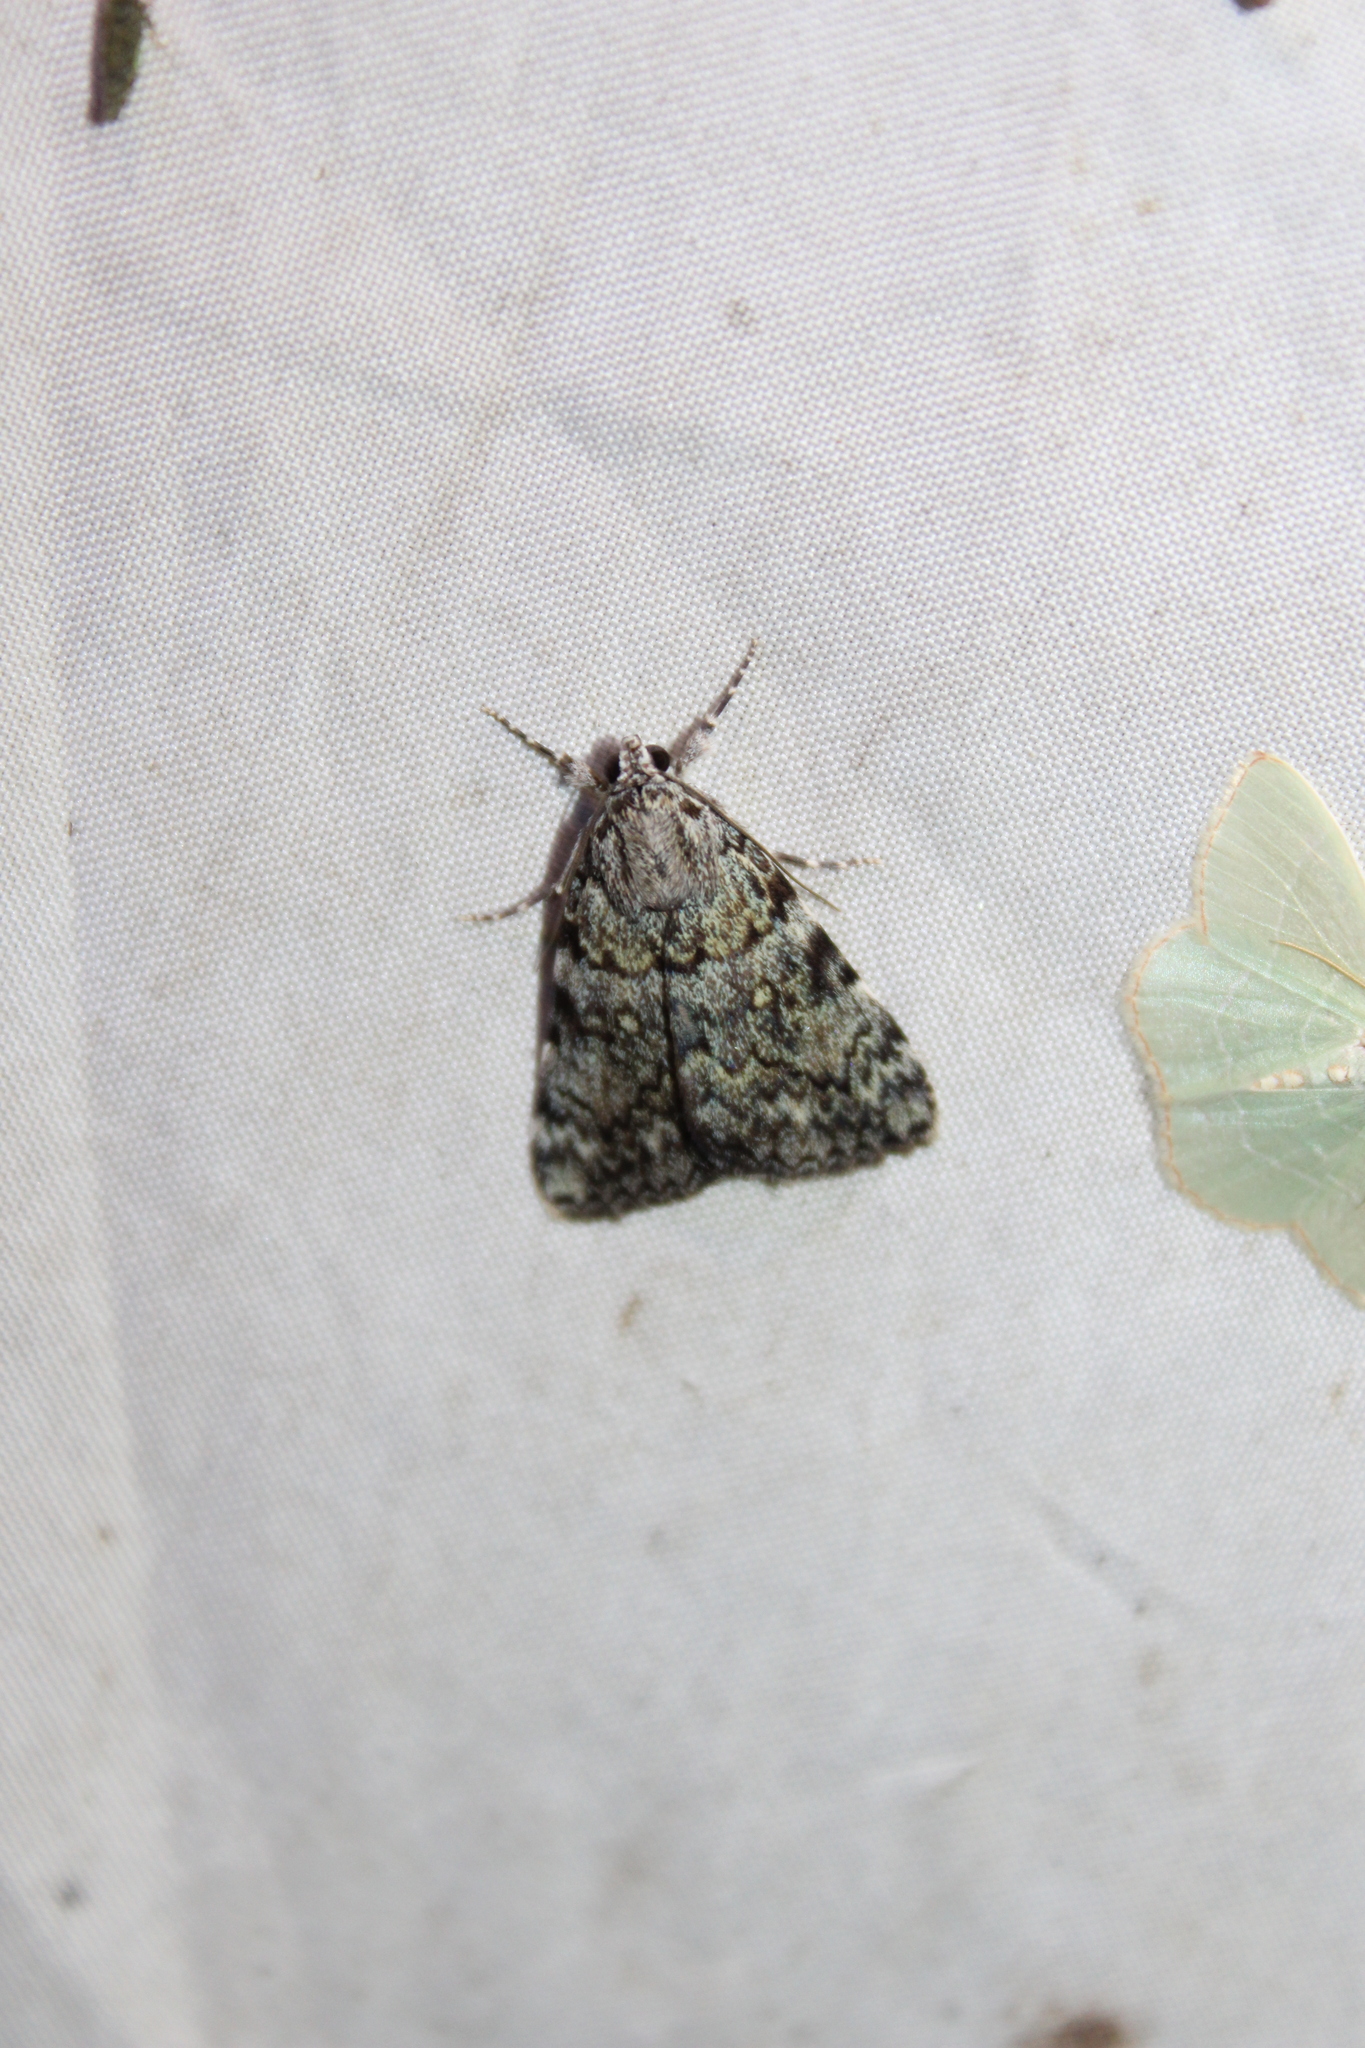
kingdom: Animalia
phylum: Arthropoda
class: Insecta
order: Lepidoptera
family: Erebidae
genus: Catocala
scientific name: Catocala lineella
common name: Little lined underwing
